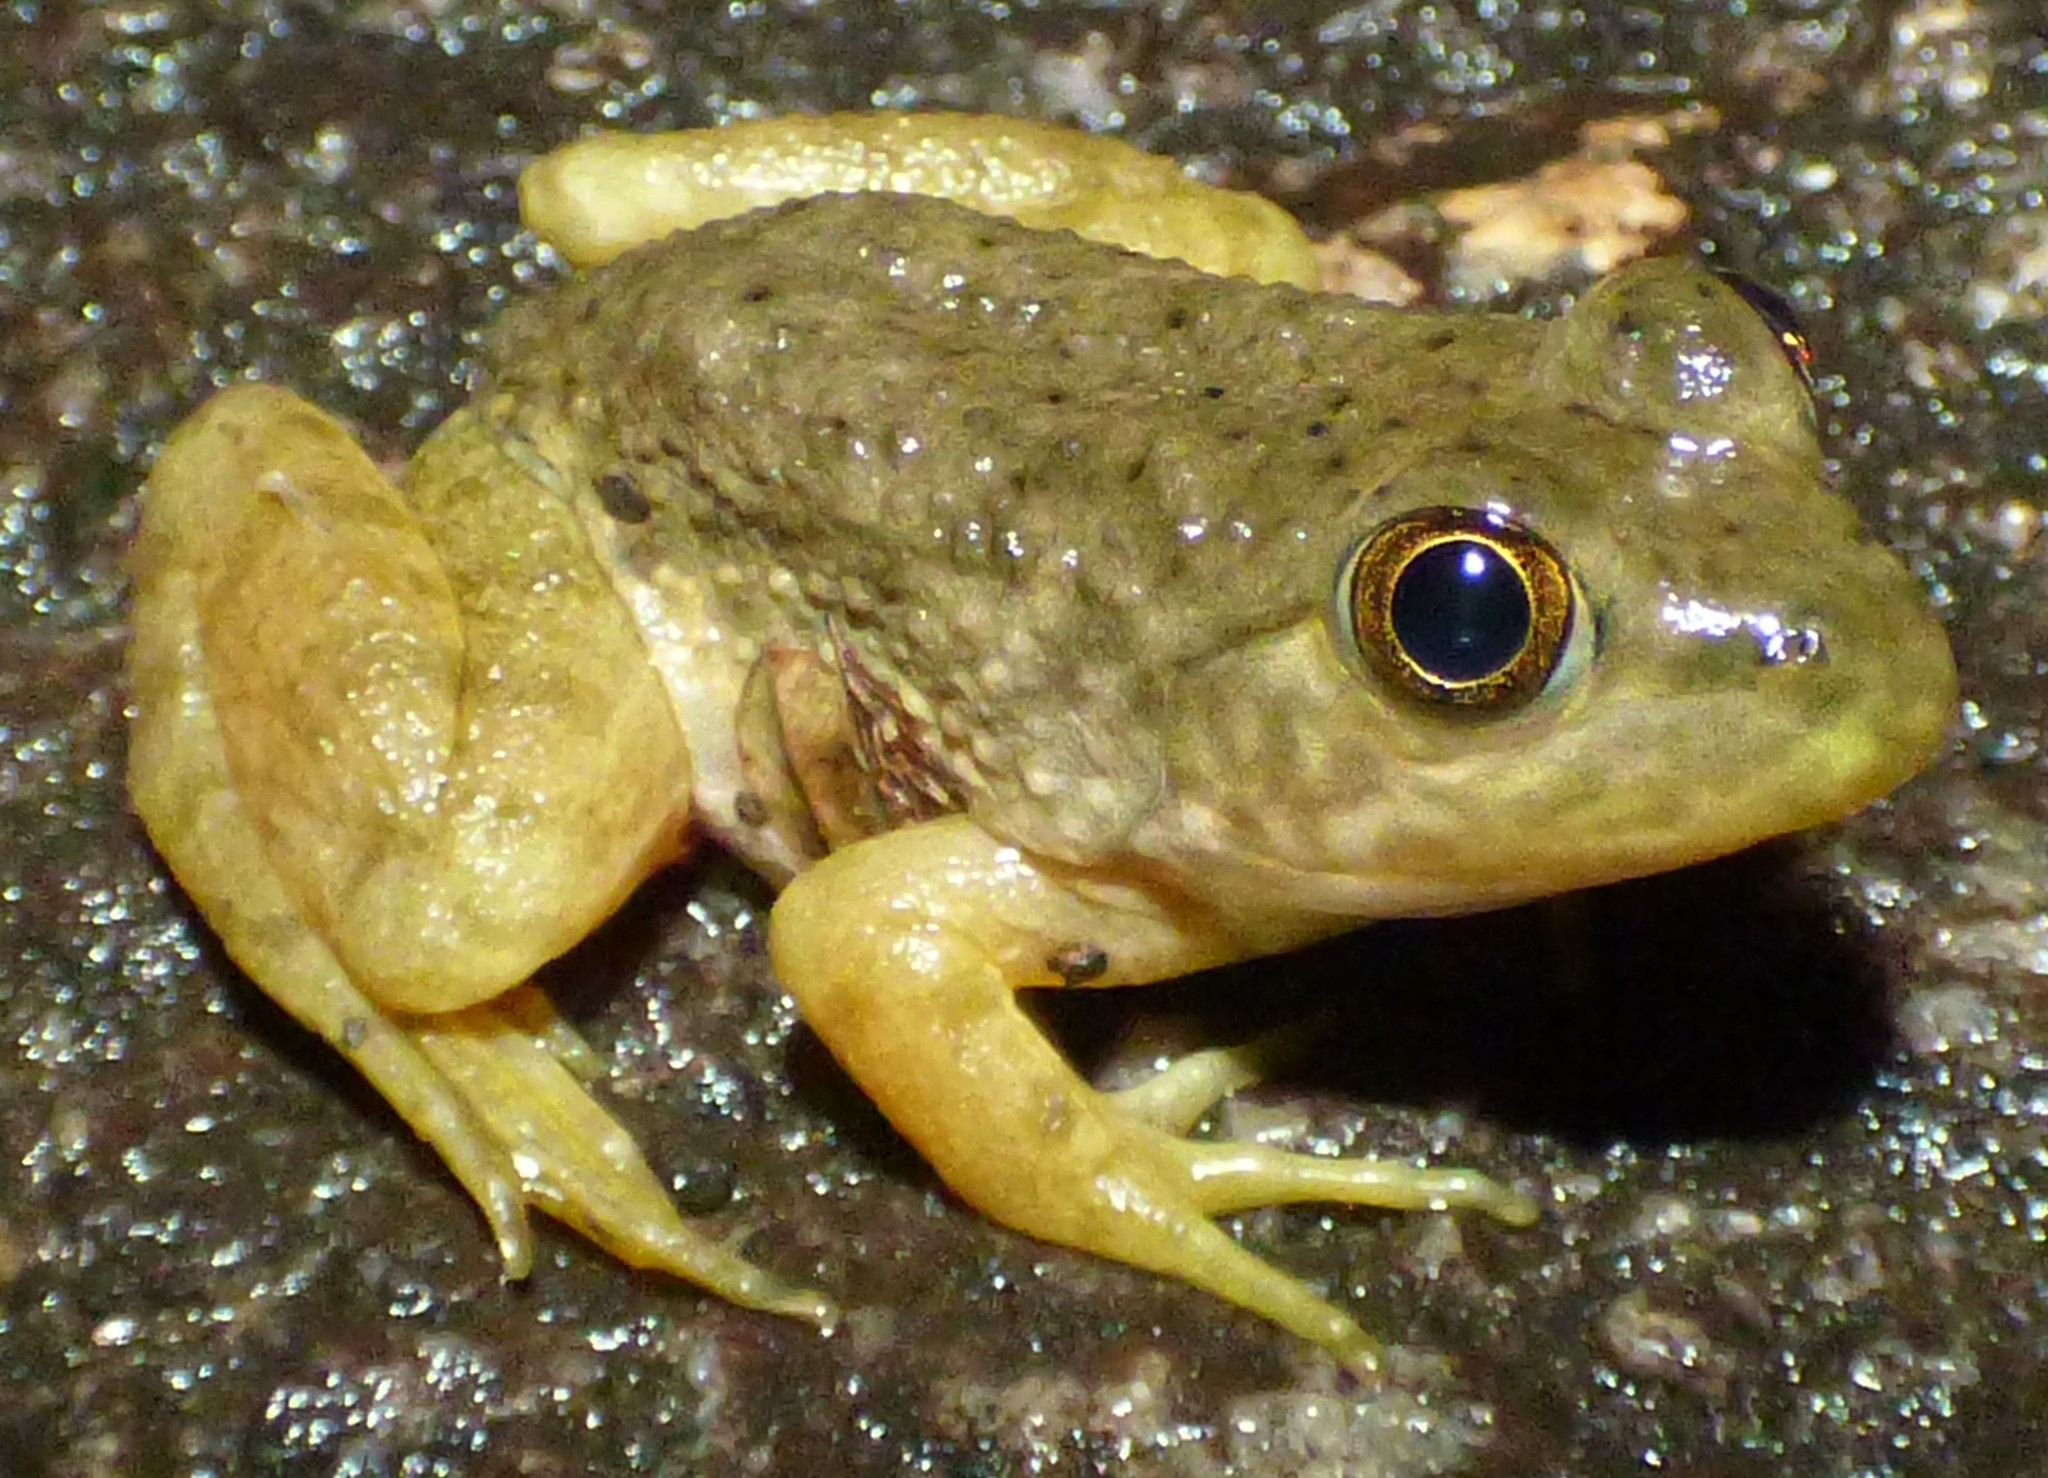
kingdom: Animalia
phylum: Chordata
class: Amphibia
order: Anura
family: Ranidae
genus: Lithobates
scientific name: Lithobates catesbeianus
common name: American bullfrog
